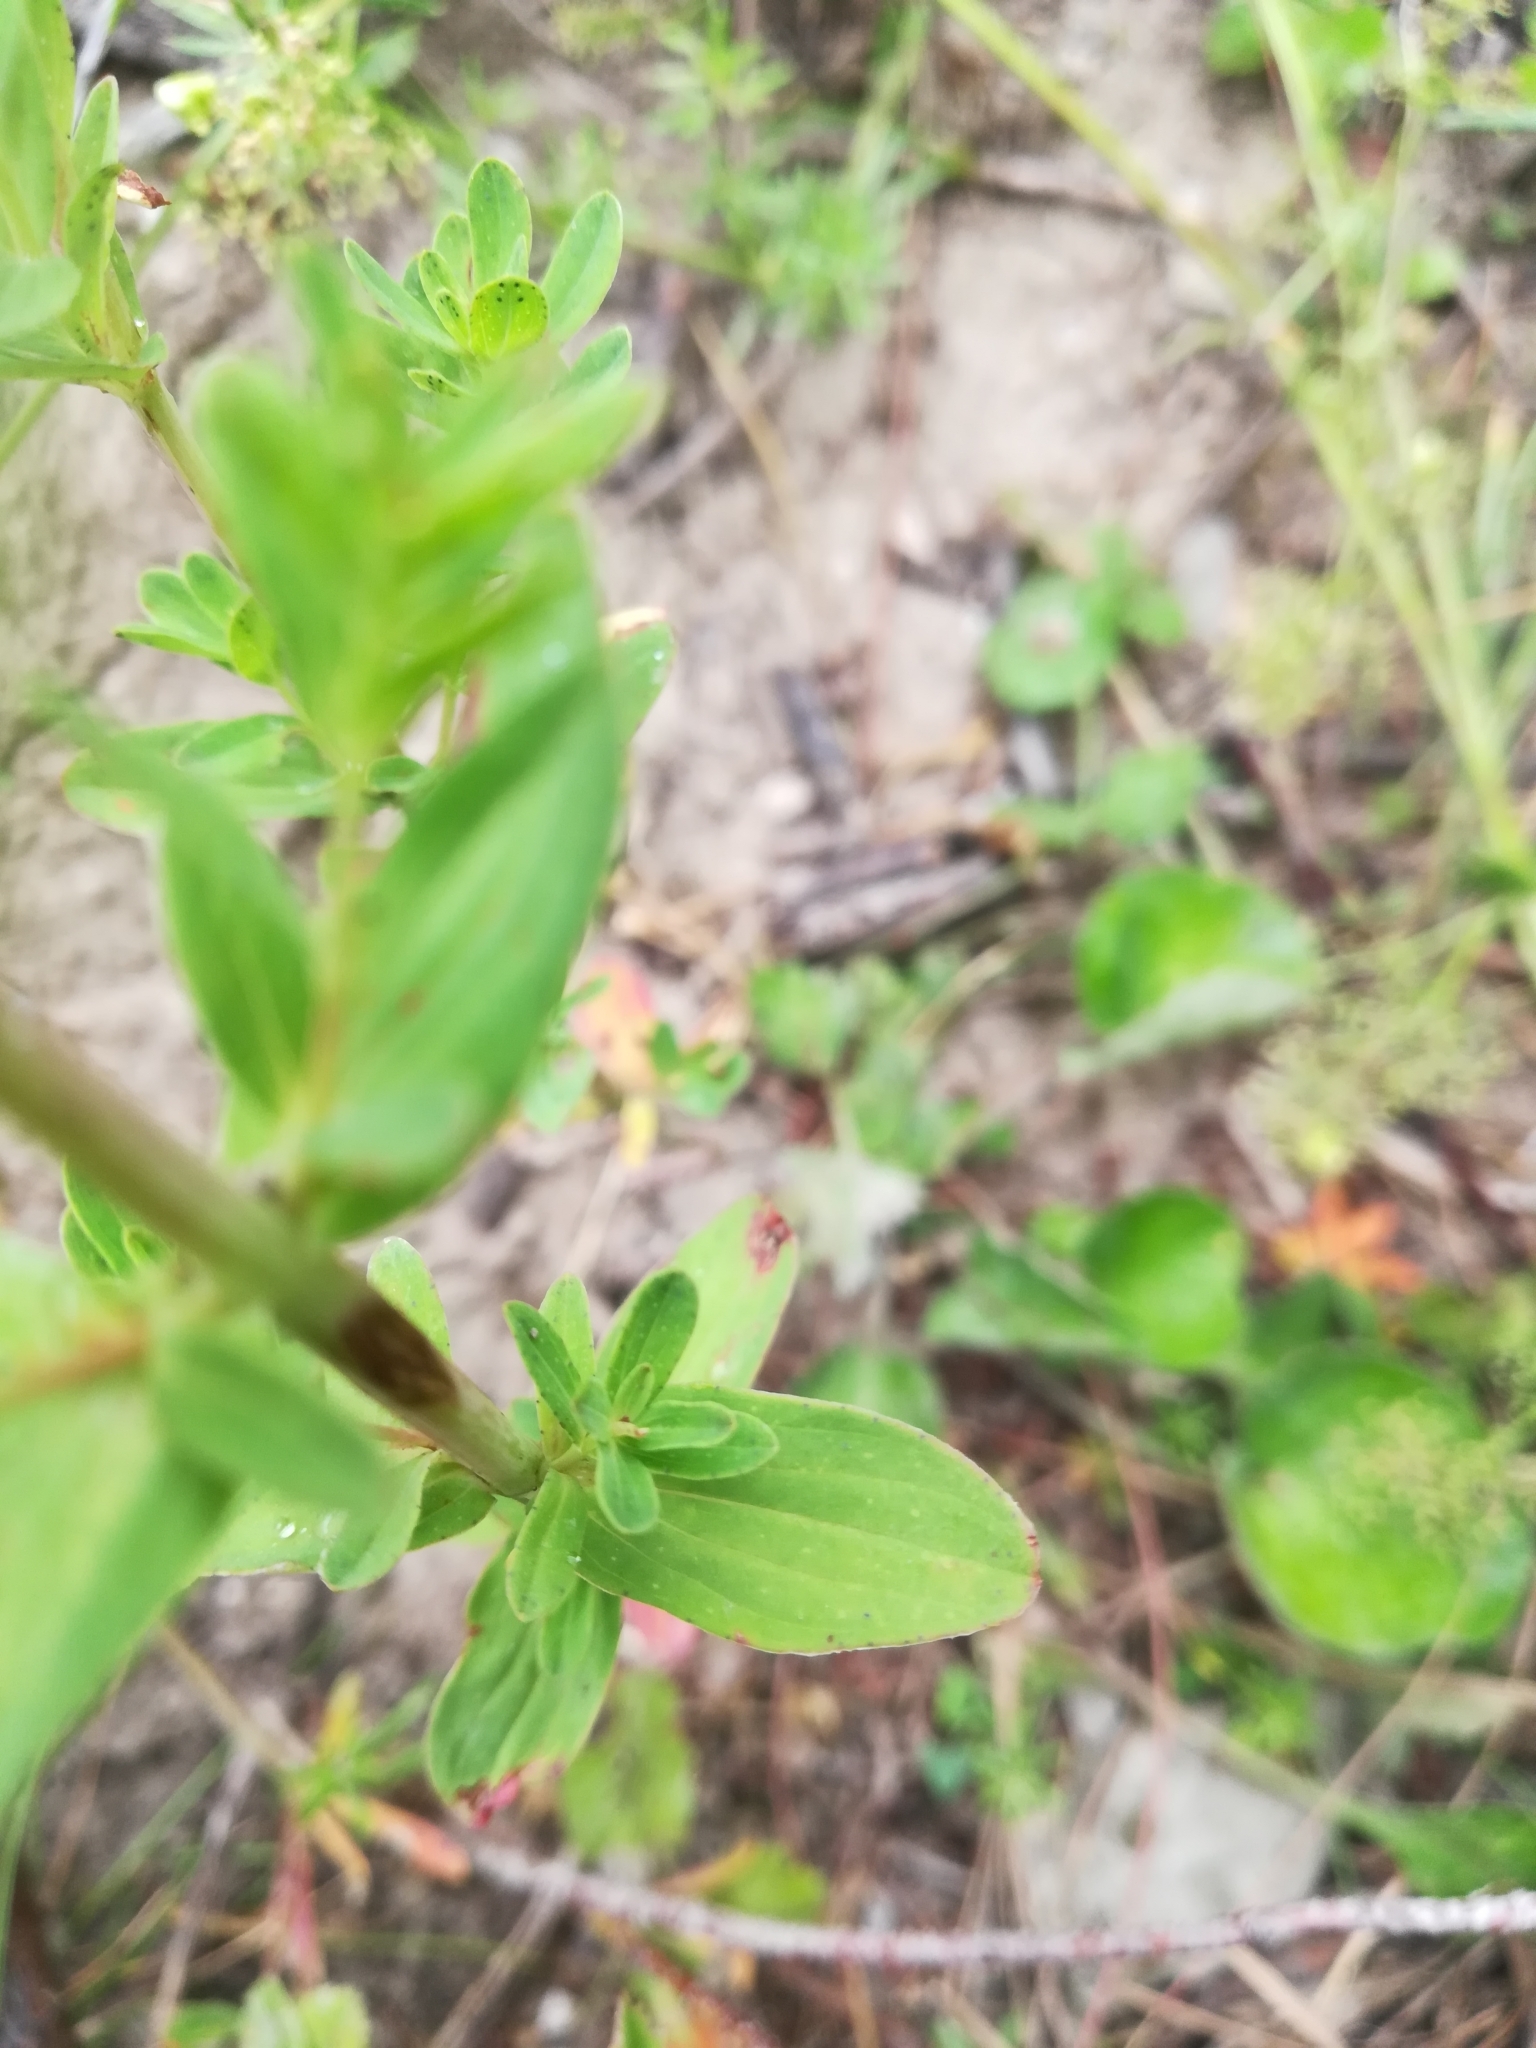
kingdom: Plantae
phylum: Tracheophyta
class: Magnoliopsida
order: Malpighiales
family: Hypericaceae
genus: Hypericum
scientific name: Hypericum perforatum
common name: Common st. johnswort
